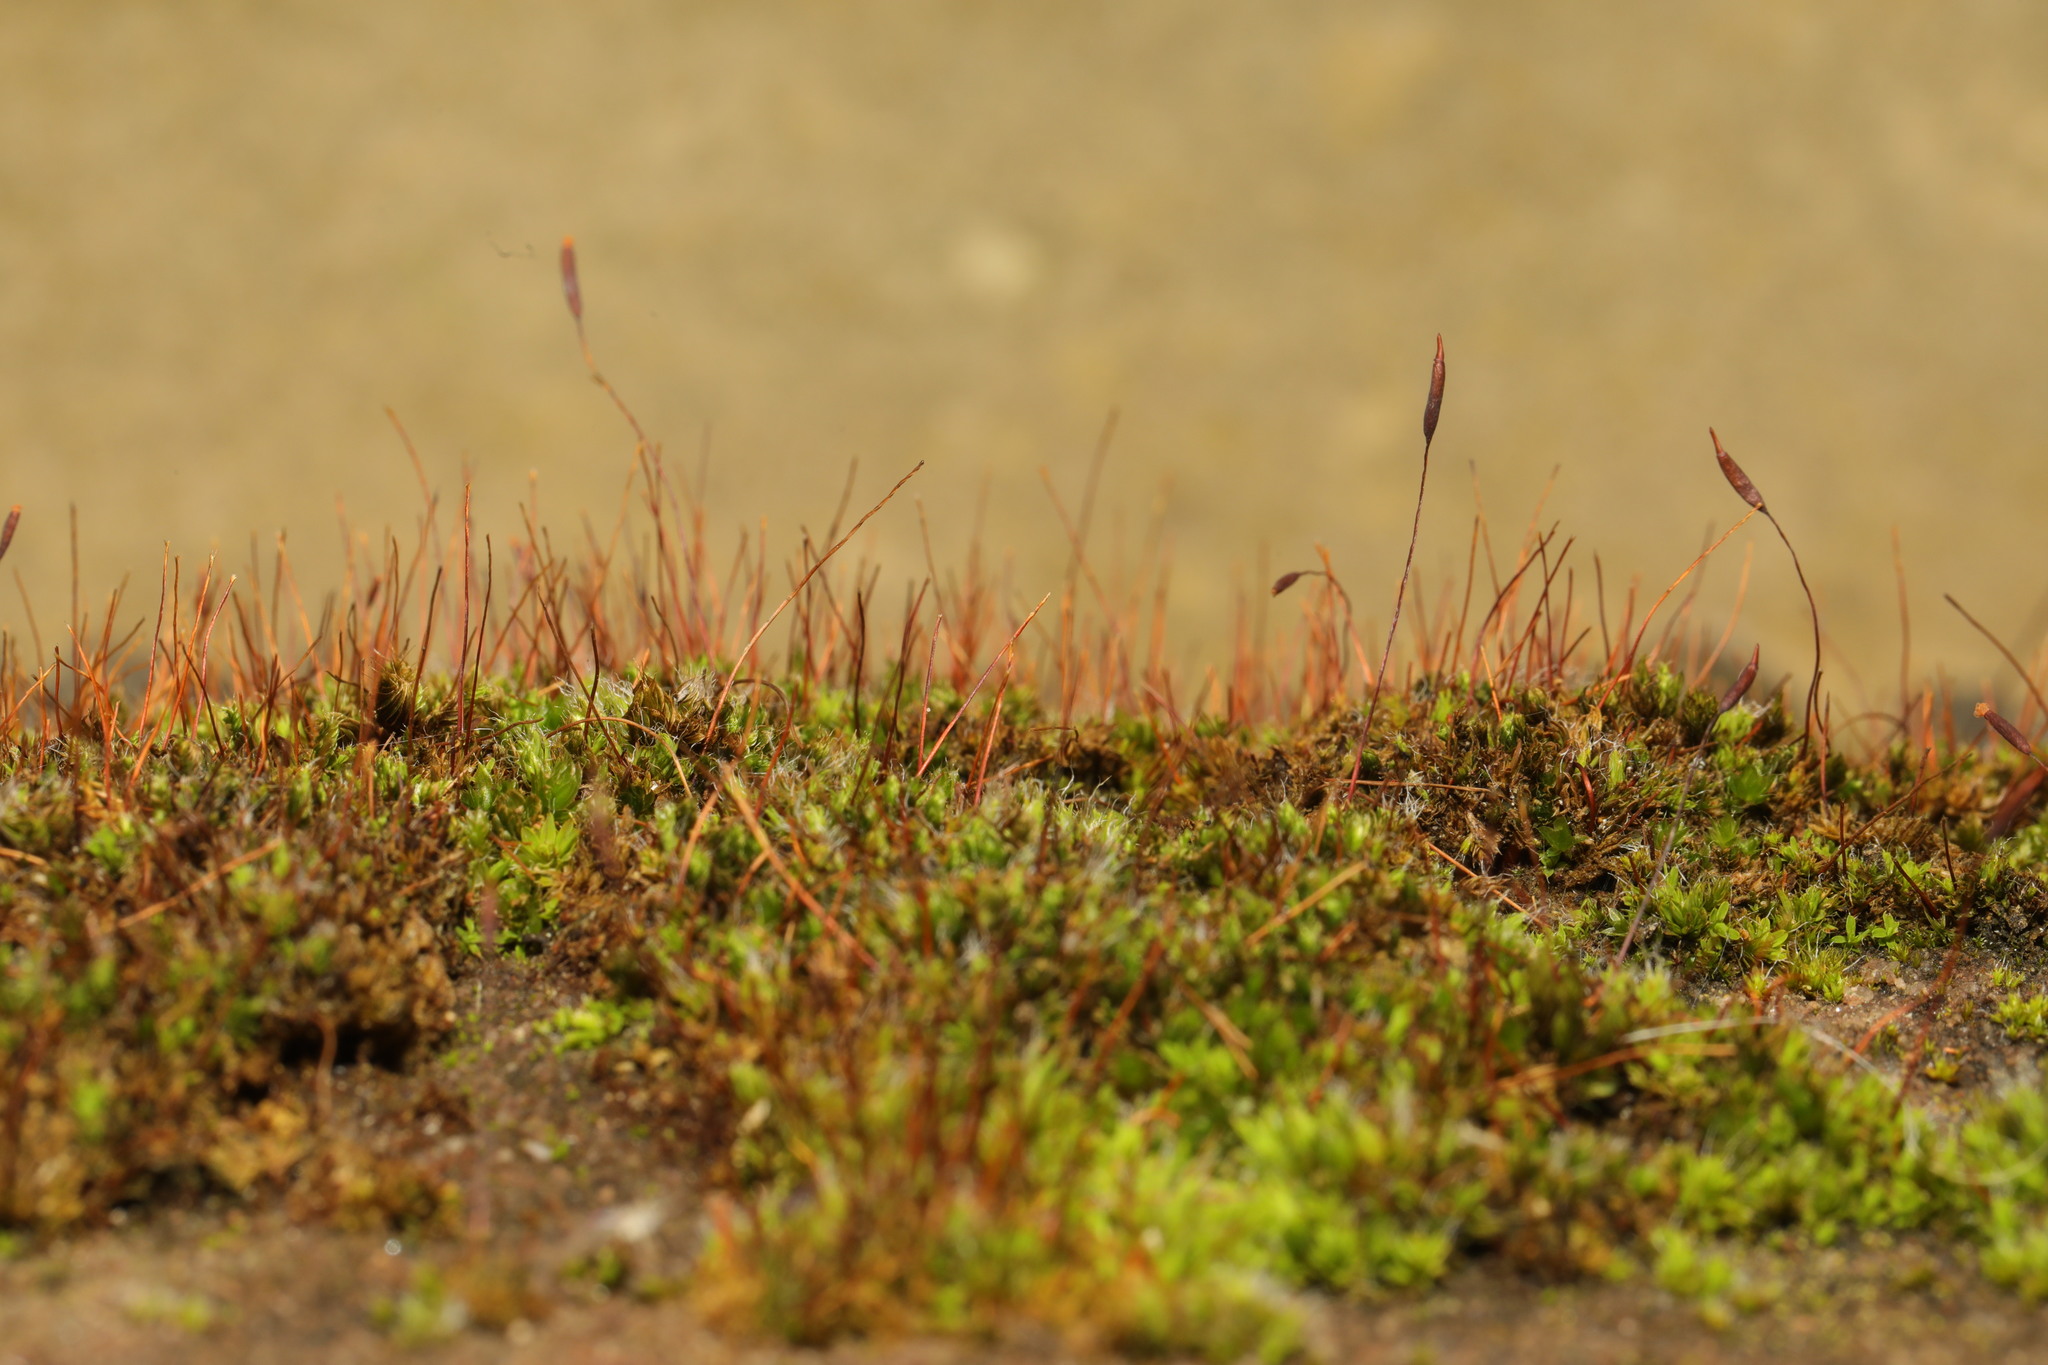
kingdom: Plantae
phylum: Bryophyta
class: Bryopsida
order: Pottiales
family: Pottiaceae
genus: Tortula
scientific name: Tortula muralis
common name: Wall screw-moss
